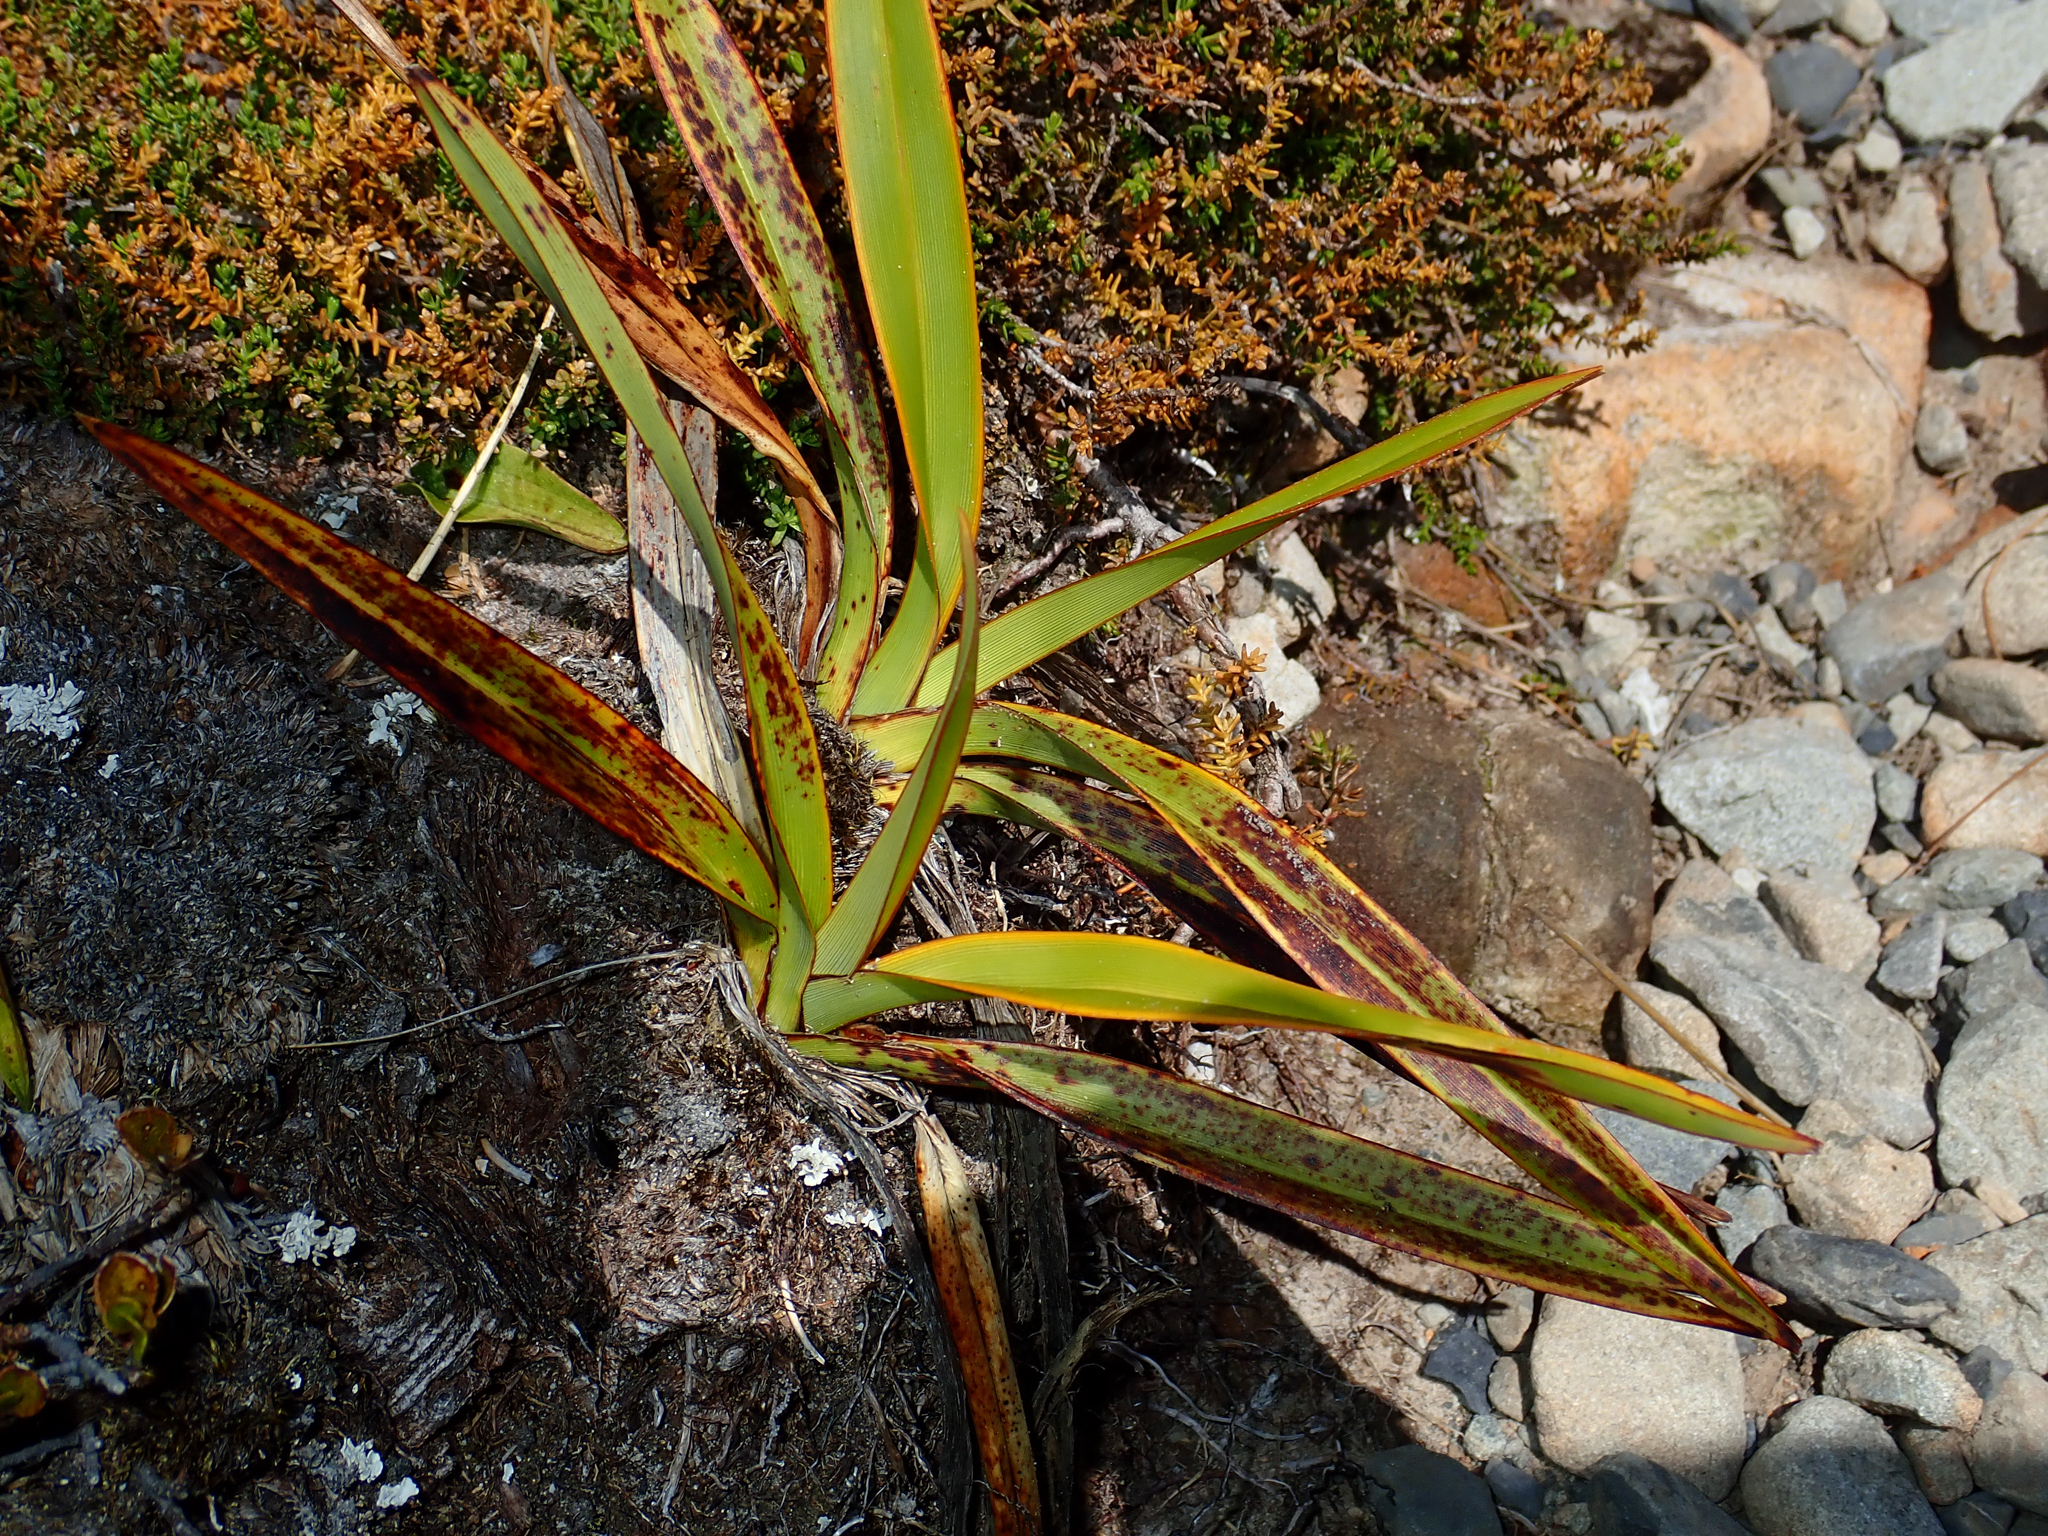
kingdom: Plantae
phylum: Tracheophyta
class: Liliopsida
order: Asparagales
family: Asphodelaceae
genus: Phormium
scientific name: Phormium colensoi
